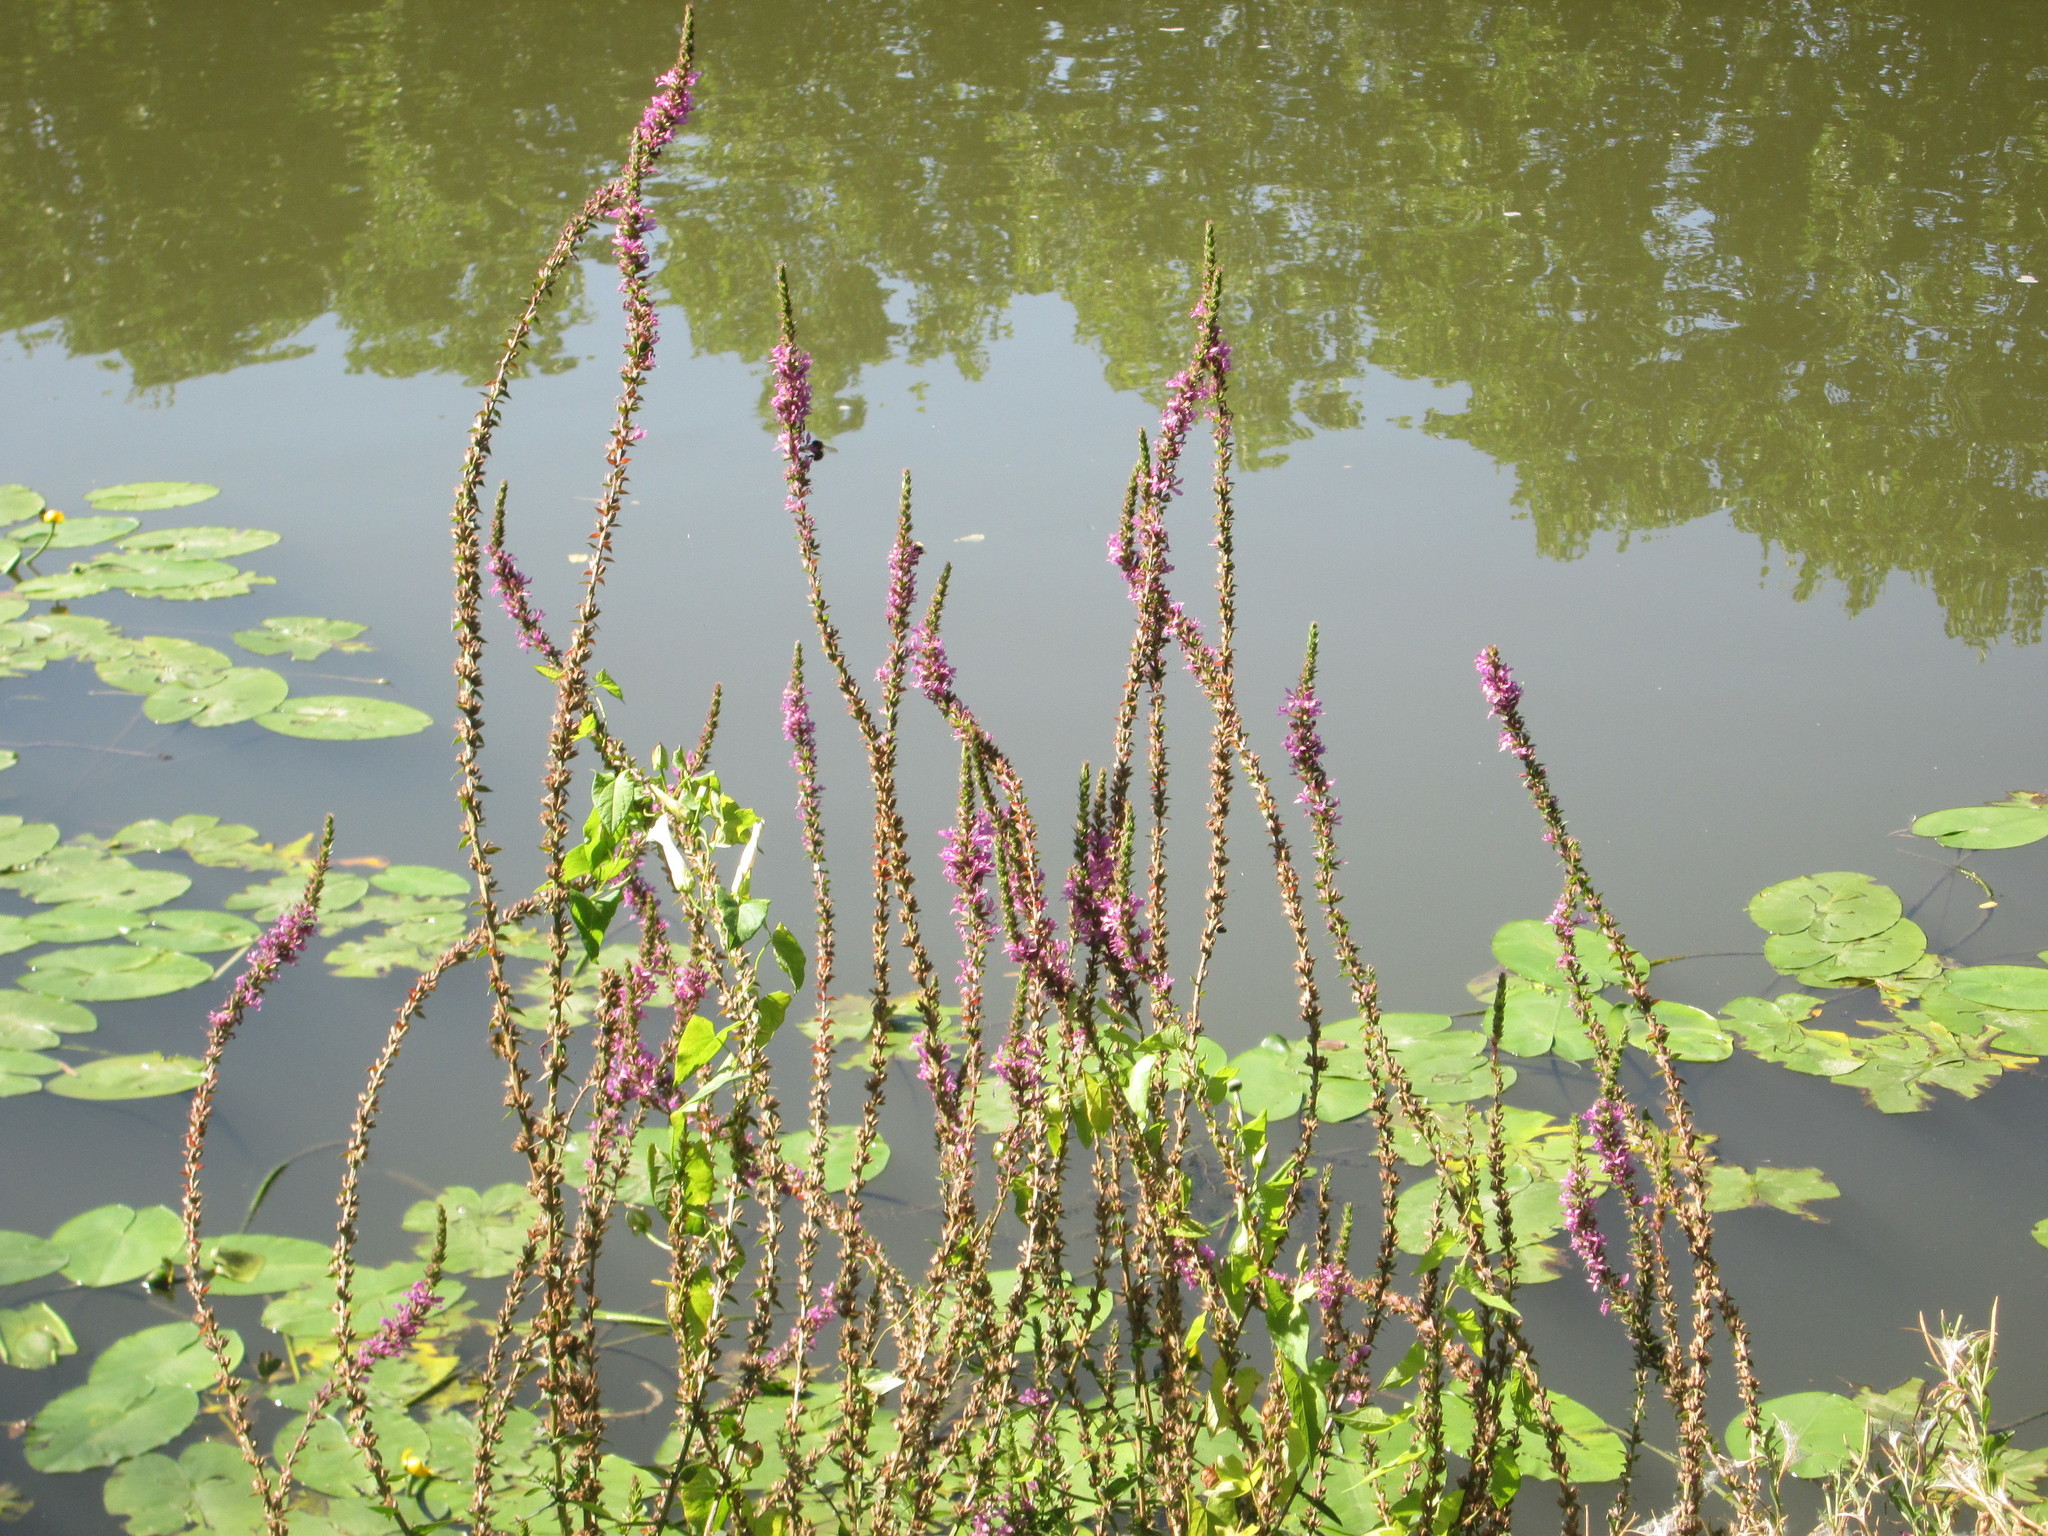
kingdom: Plantae
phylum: Tracheophyta
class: Magnoliopsida
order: Myrtales
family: Lythraceae
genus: Lythrum
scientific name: Lythrum salicaria
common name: Purple loosestrife
